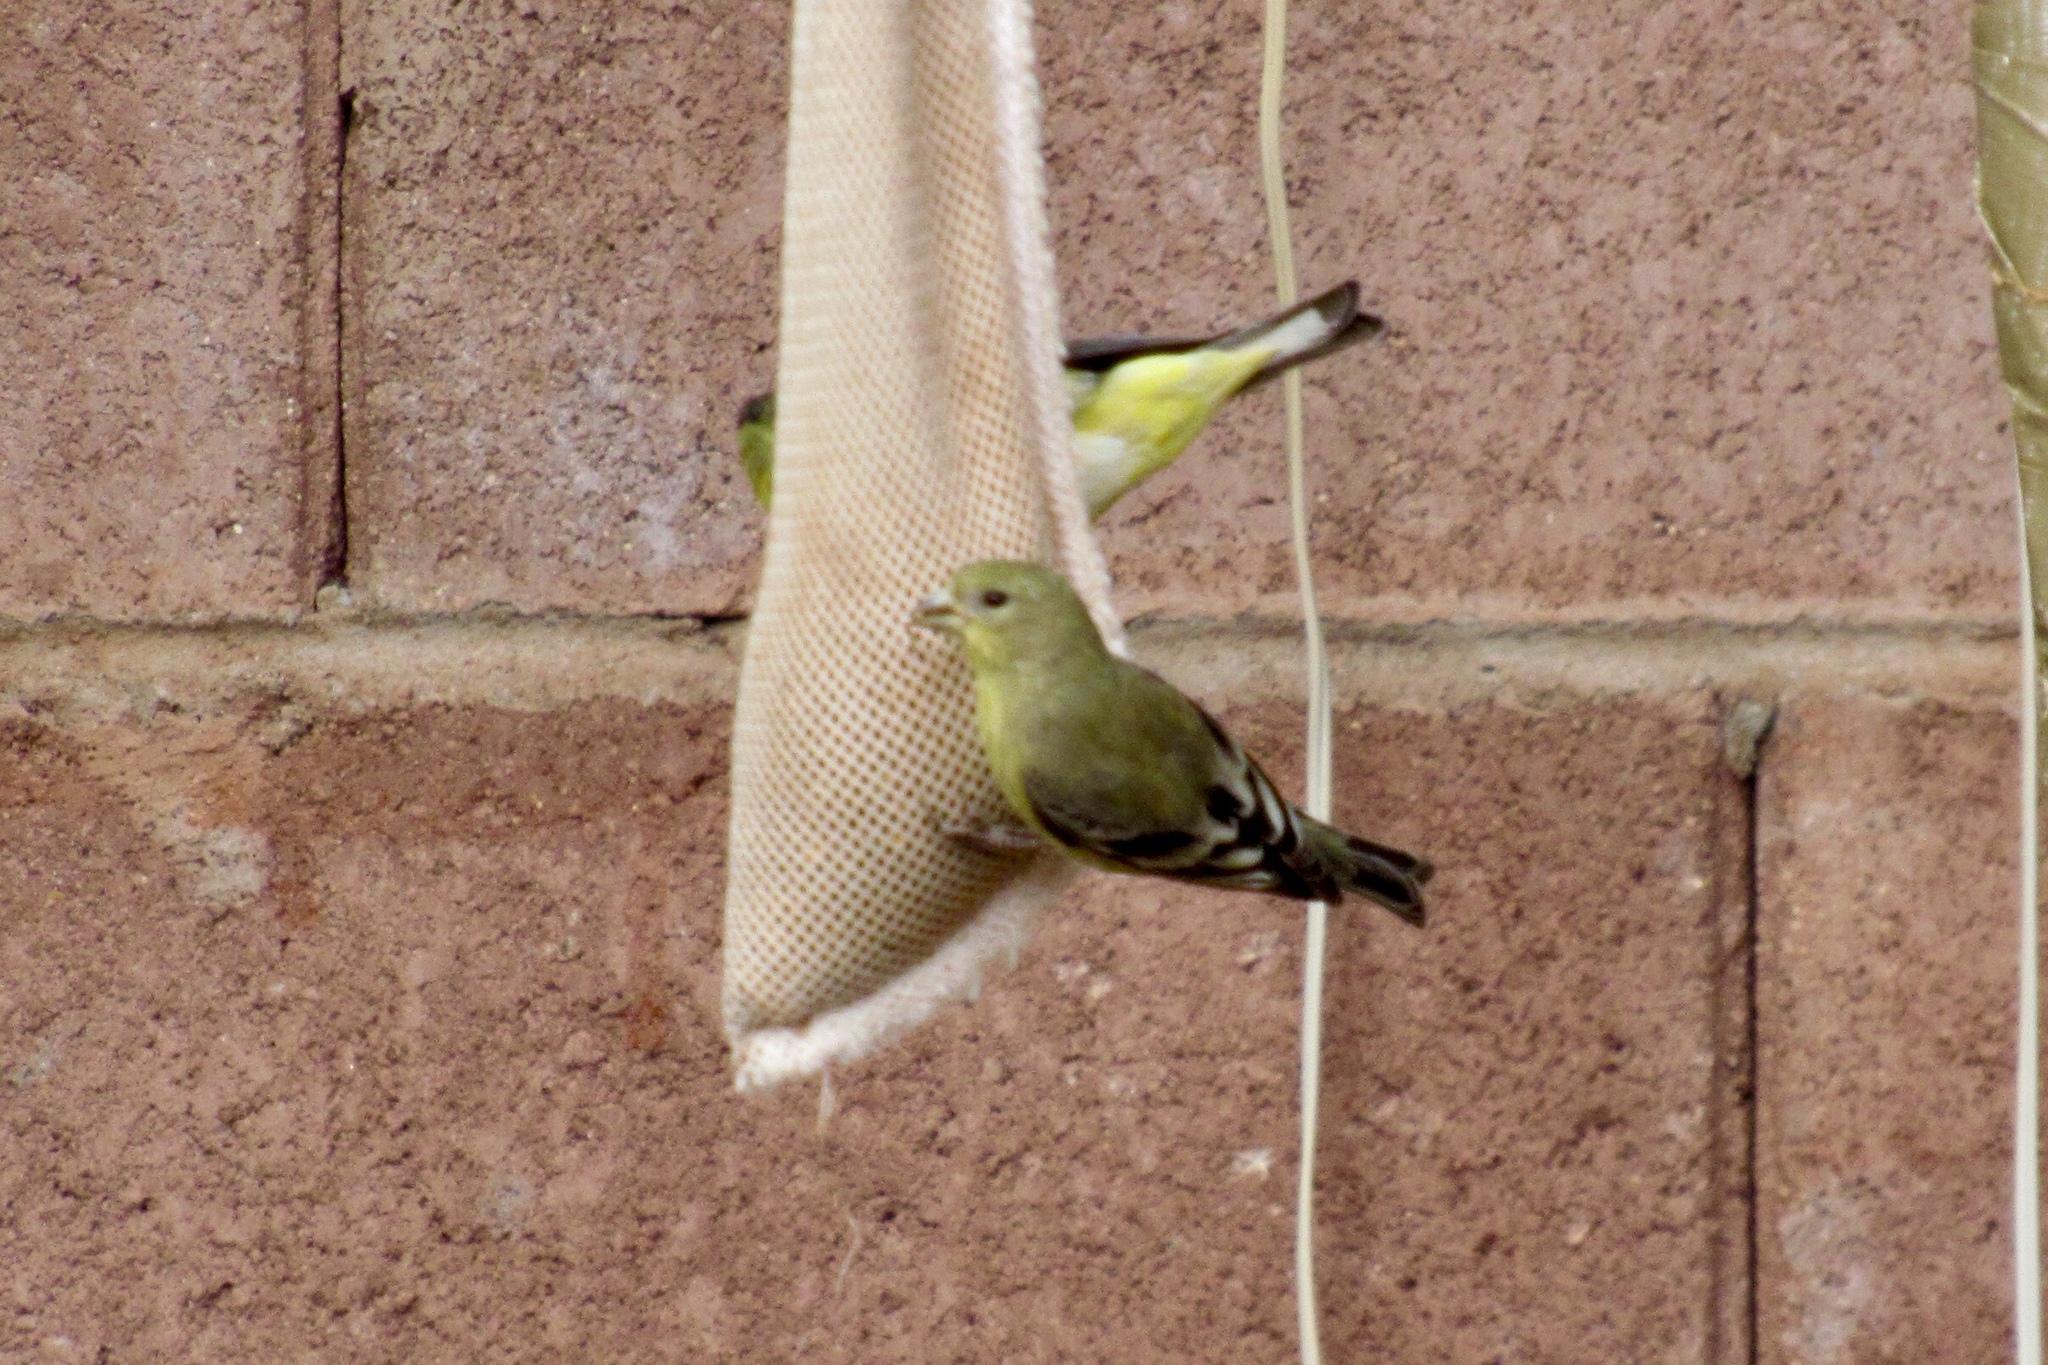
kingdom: Animalia
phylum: Chordata
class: Aves
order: Passeriformes
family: Fringillidae
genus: Spinus
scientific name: Spinus psaltria
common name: Lesser goldfinch
